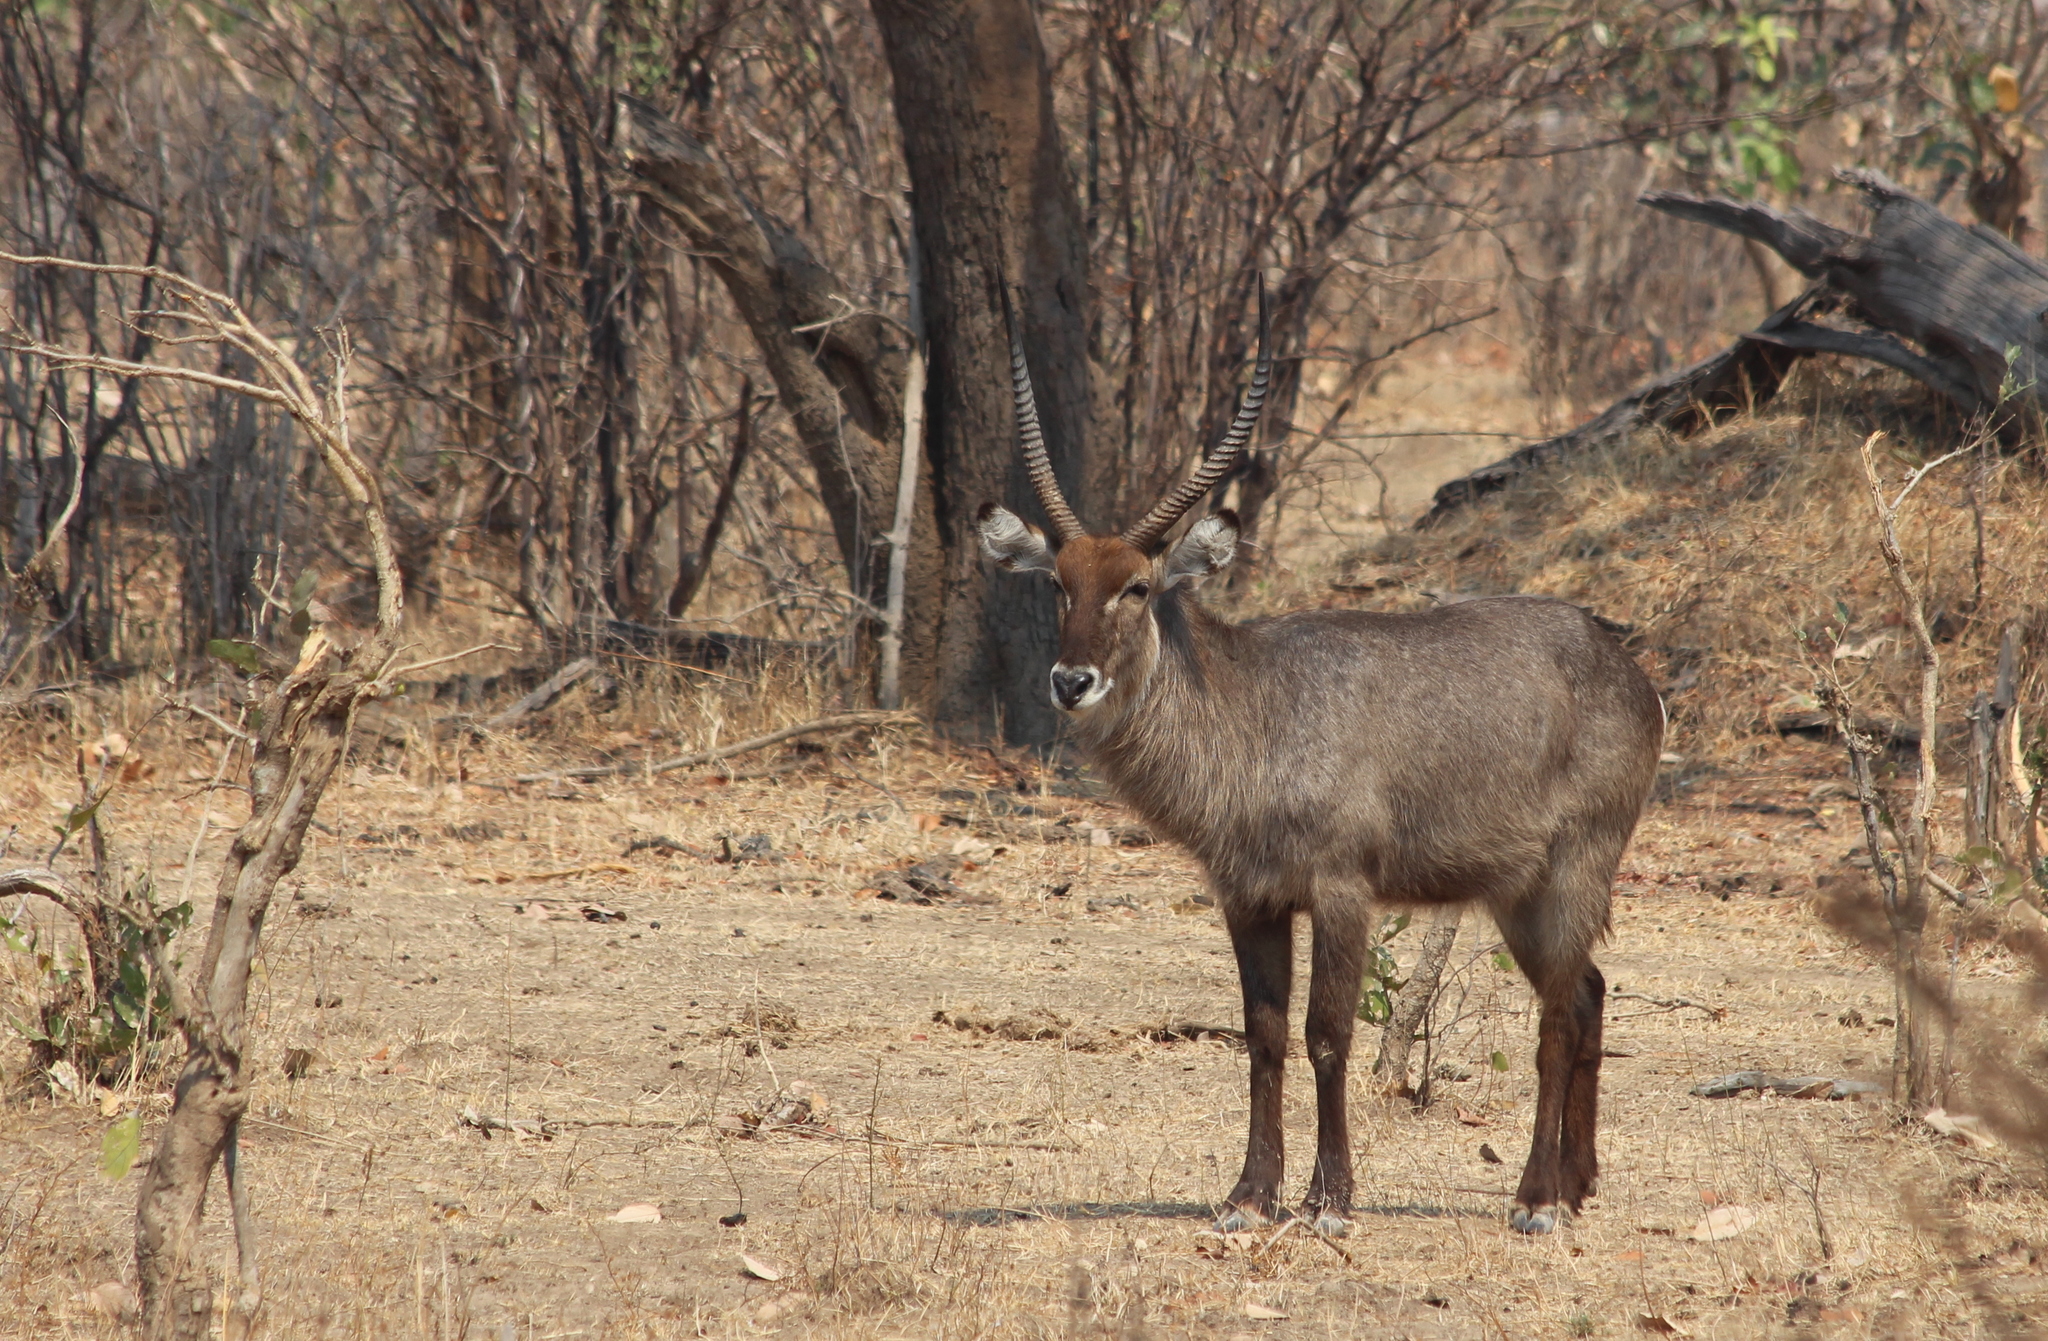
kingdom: Animalia
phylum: Chordata
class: Mammalia
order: Artiodactyla
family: Bovidae
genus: Kobus
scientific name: Kobus ellipsiprymnus
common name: Waterbuck
